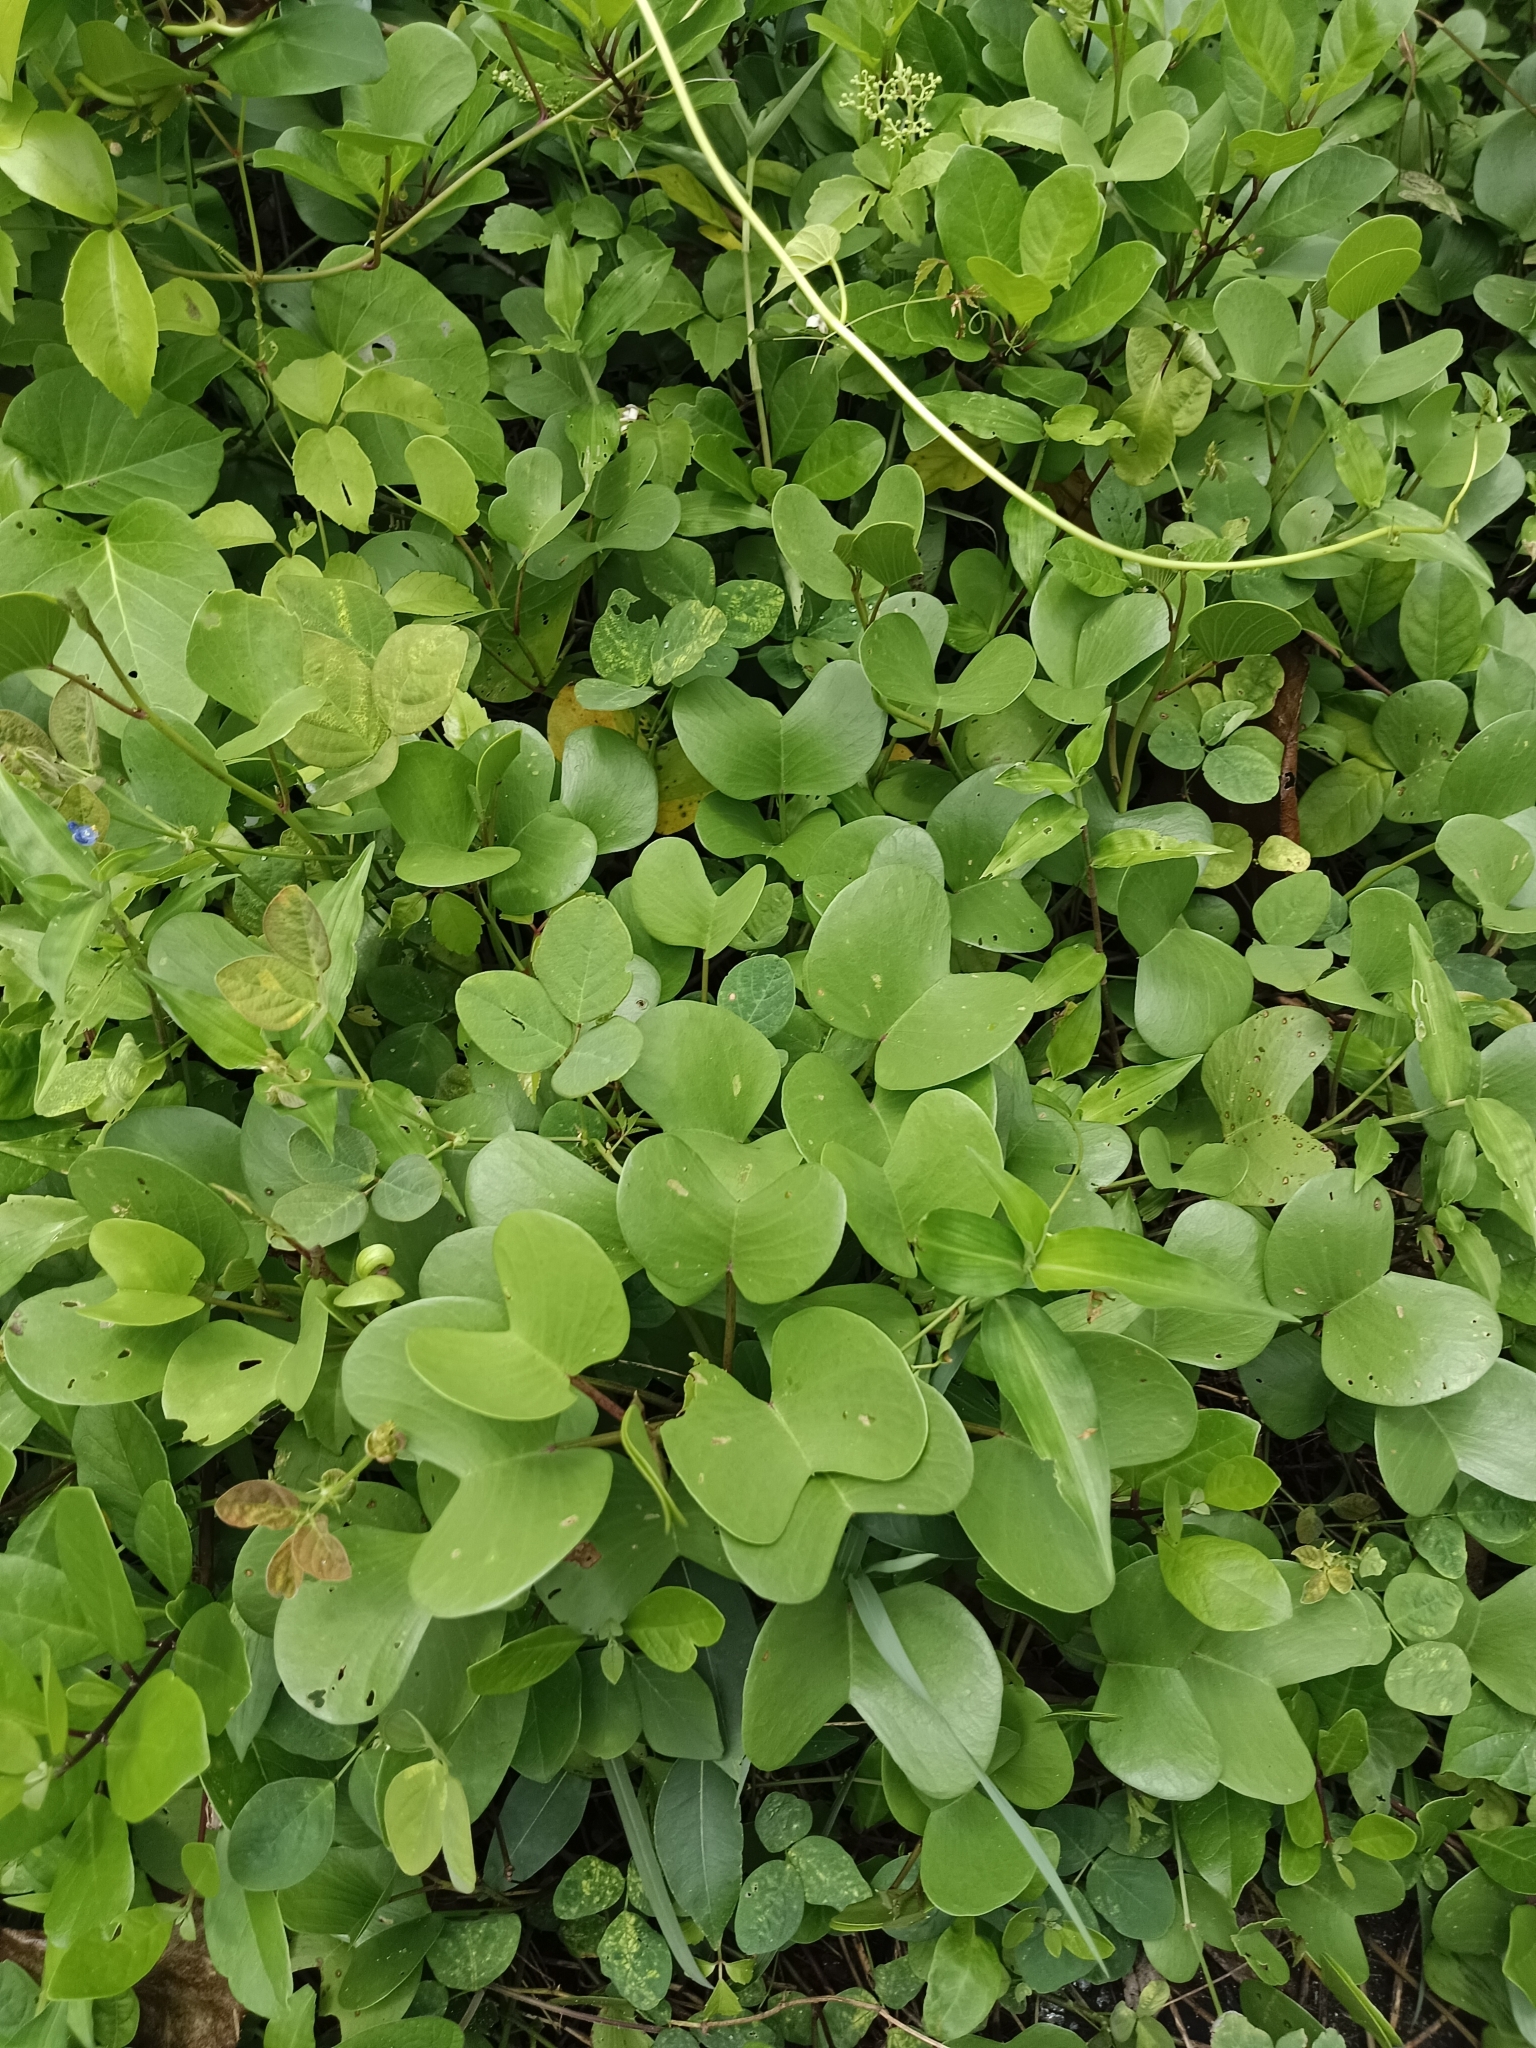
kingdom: Plantae
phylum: Tracheophyta
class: Magnoliopsida
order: Solanales
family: Convolvulaceae
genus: Ipomoea
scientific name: Ipomoea pes-caprae
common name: Beach morning glory
